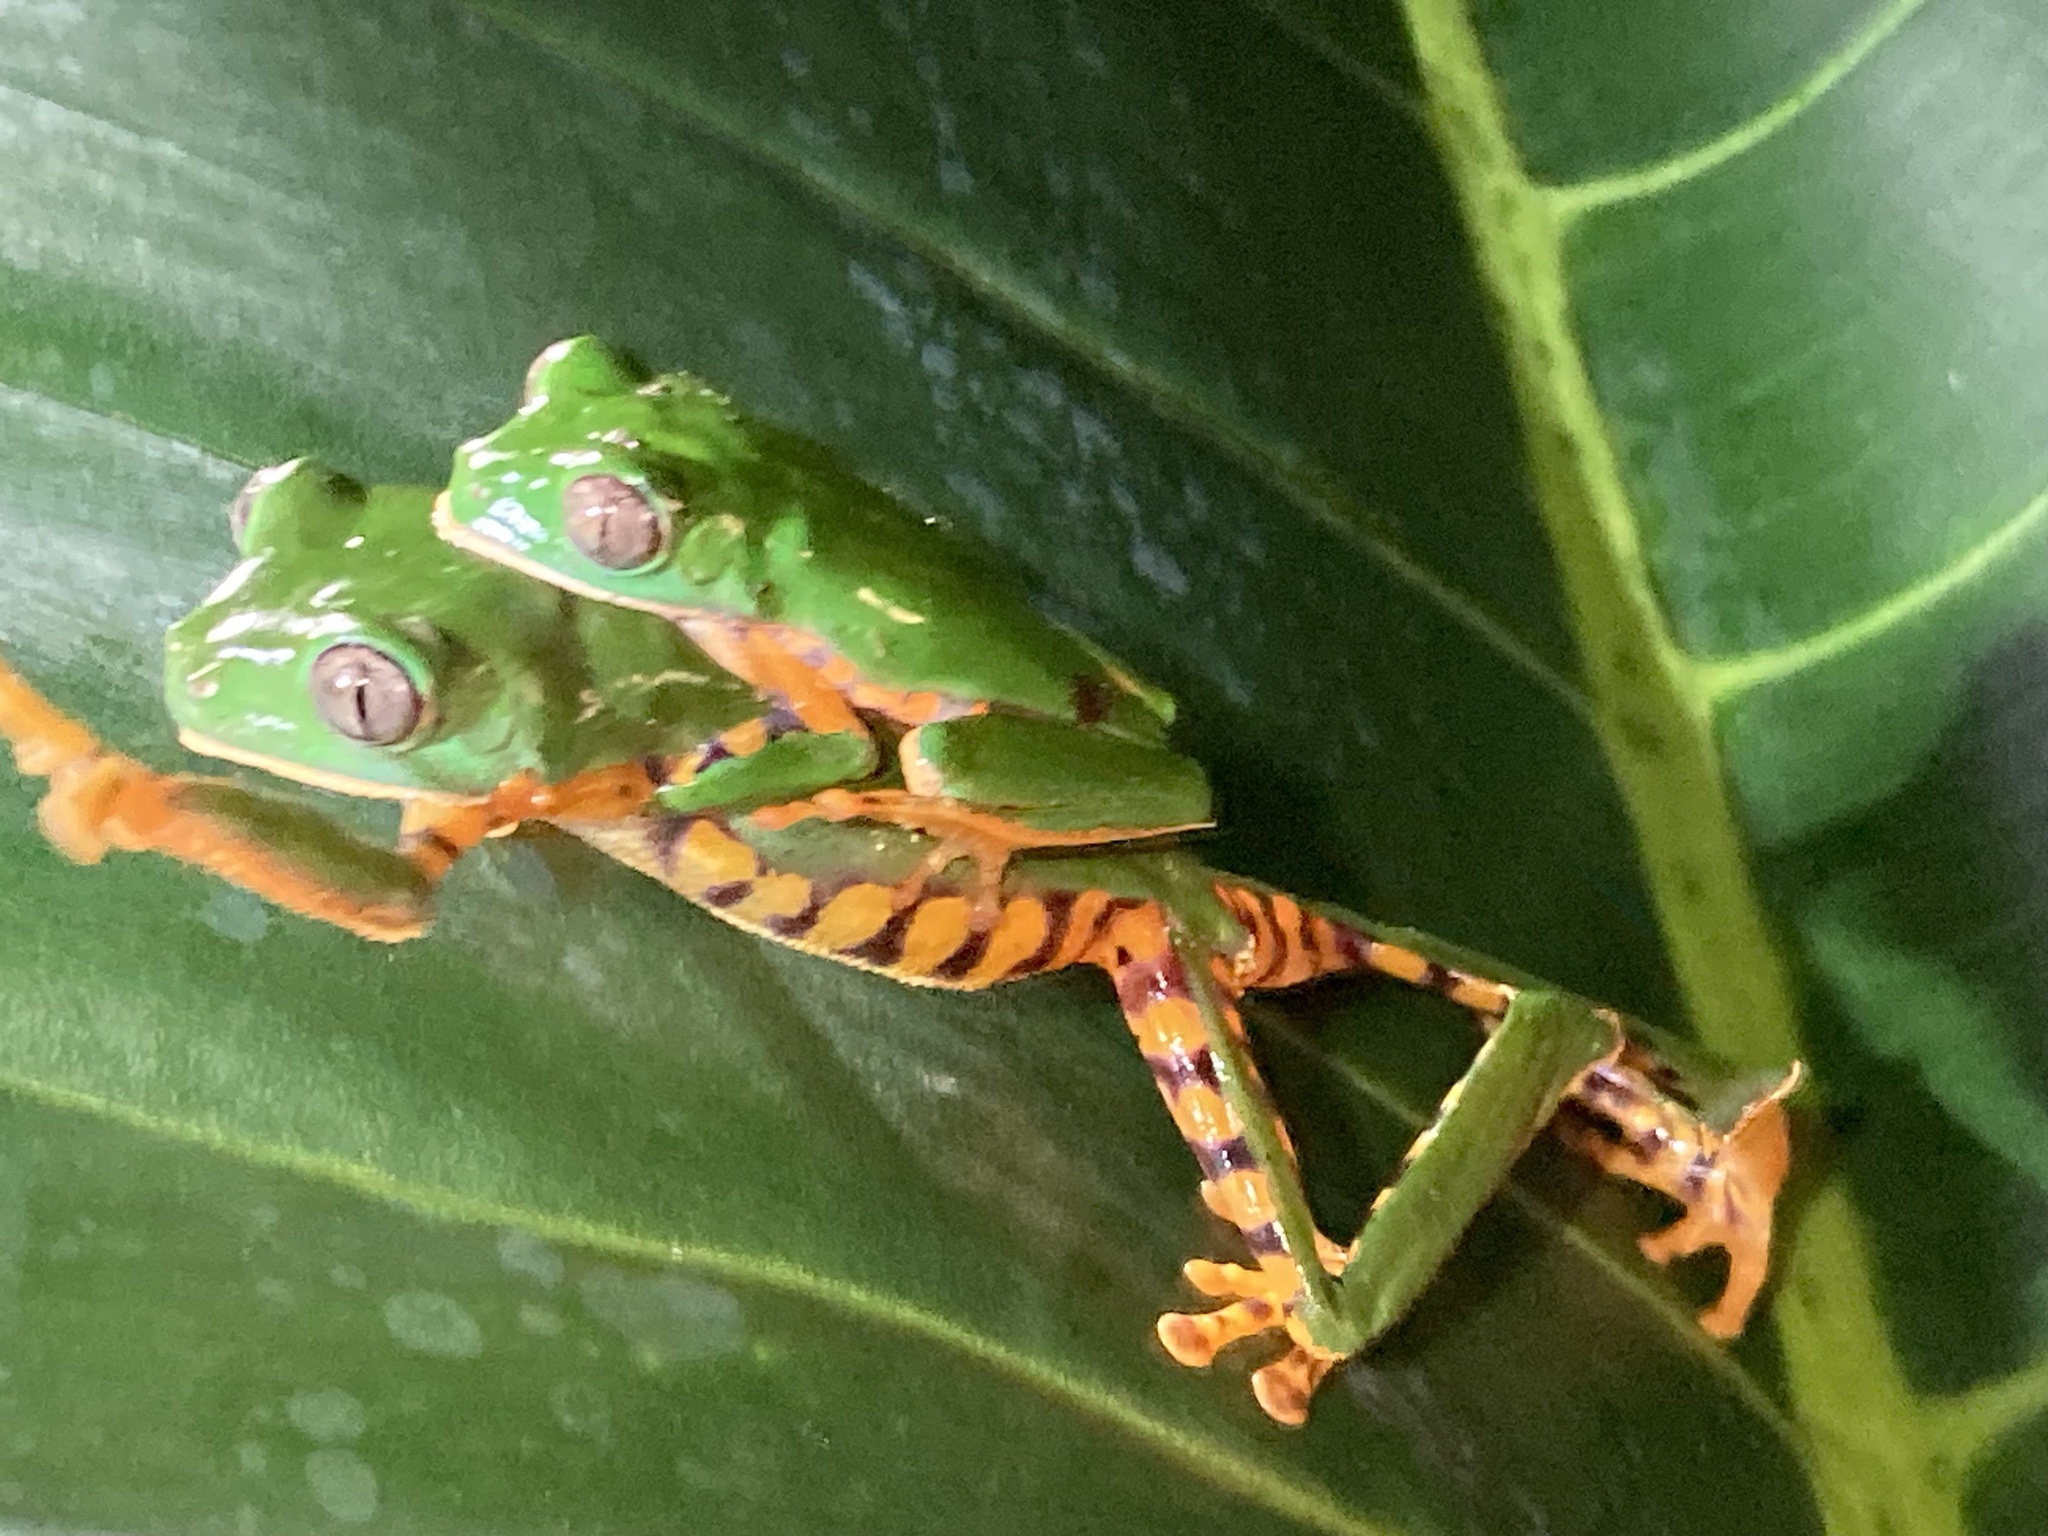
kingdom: Animalia
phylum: Chordata
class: Amphibia
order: Anura
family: Phyllomedusidae
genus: Callimedusa
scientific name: Callimedusa tomopterna
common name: Tiger-striped leaf frog
